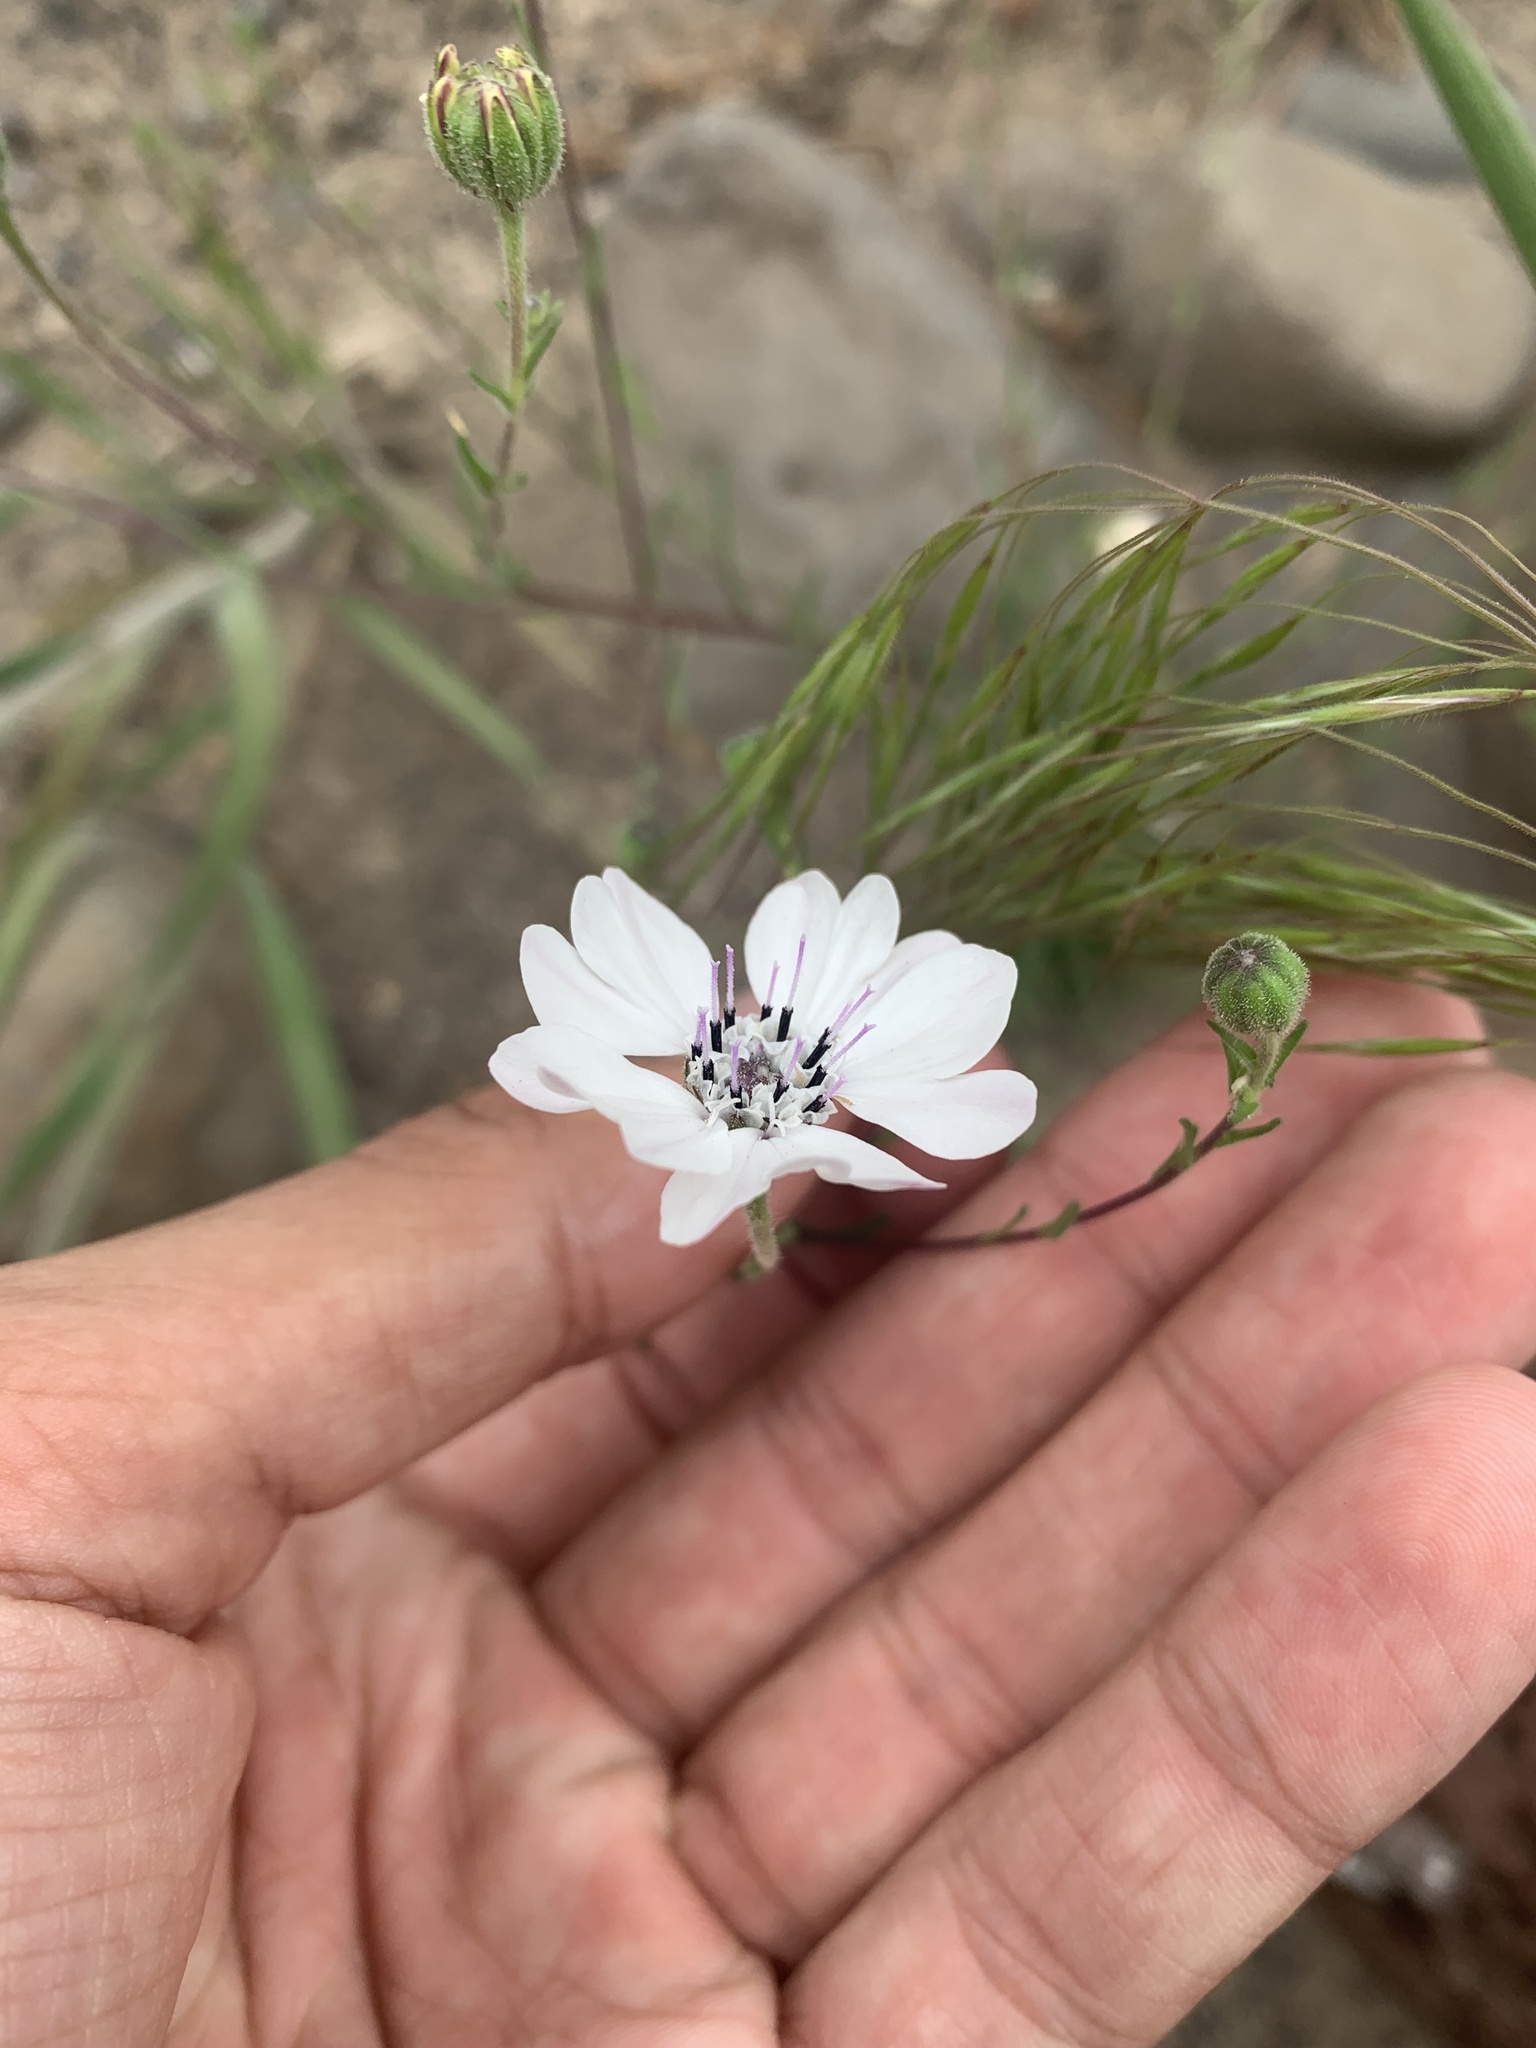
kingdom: Plantae
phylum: Tracheophyta
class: Magnoliopsida
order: Asterales
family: Asteraceae
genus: Blepharipappus
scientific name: Blepharipappus scaber
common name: Rough blepharipappus
